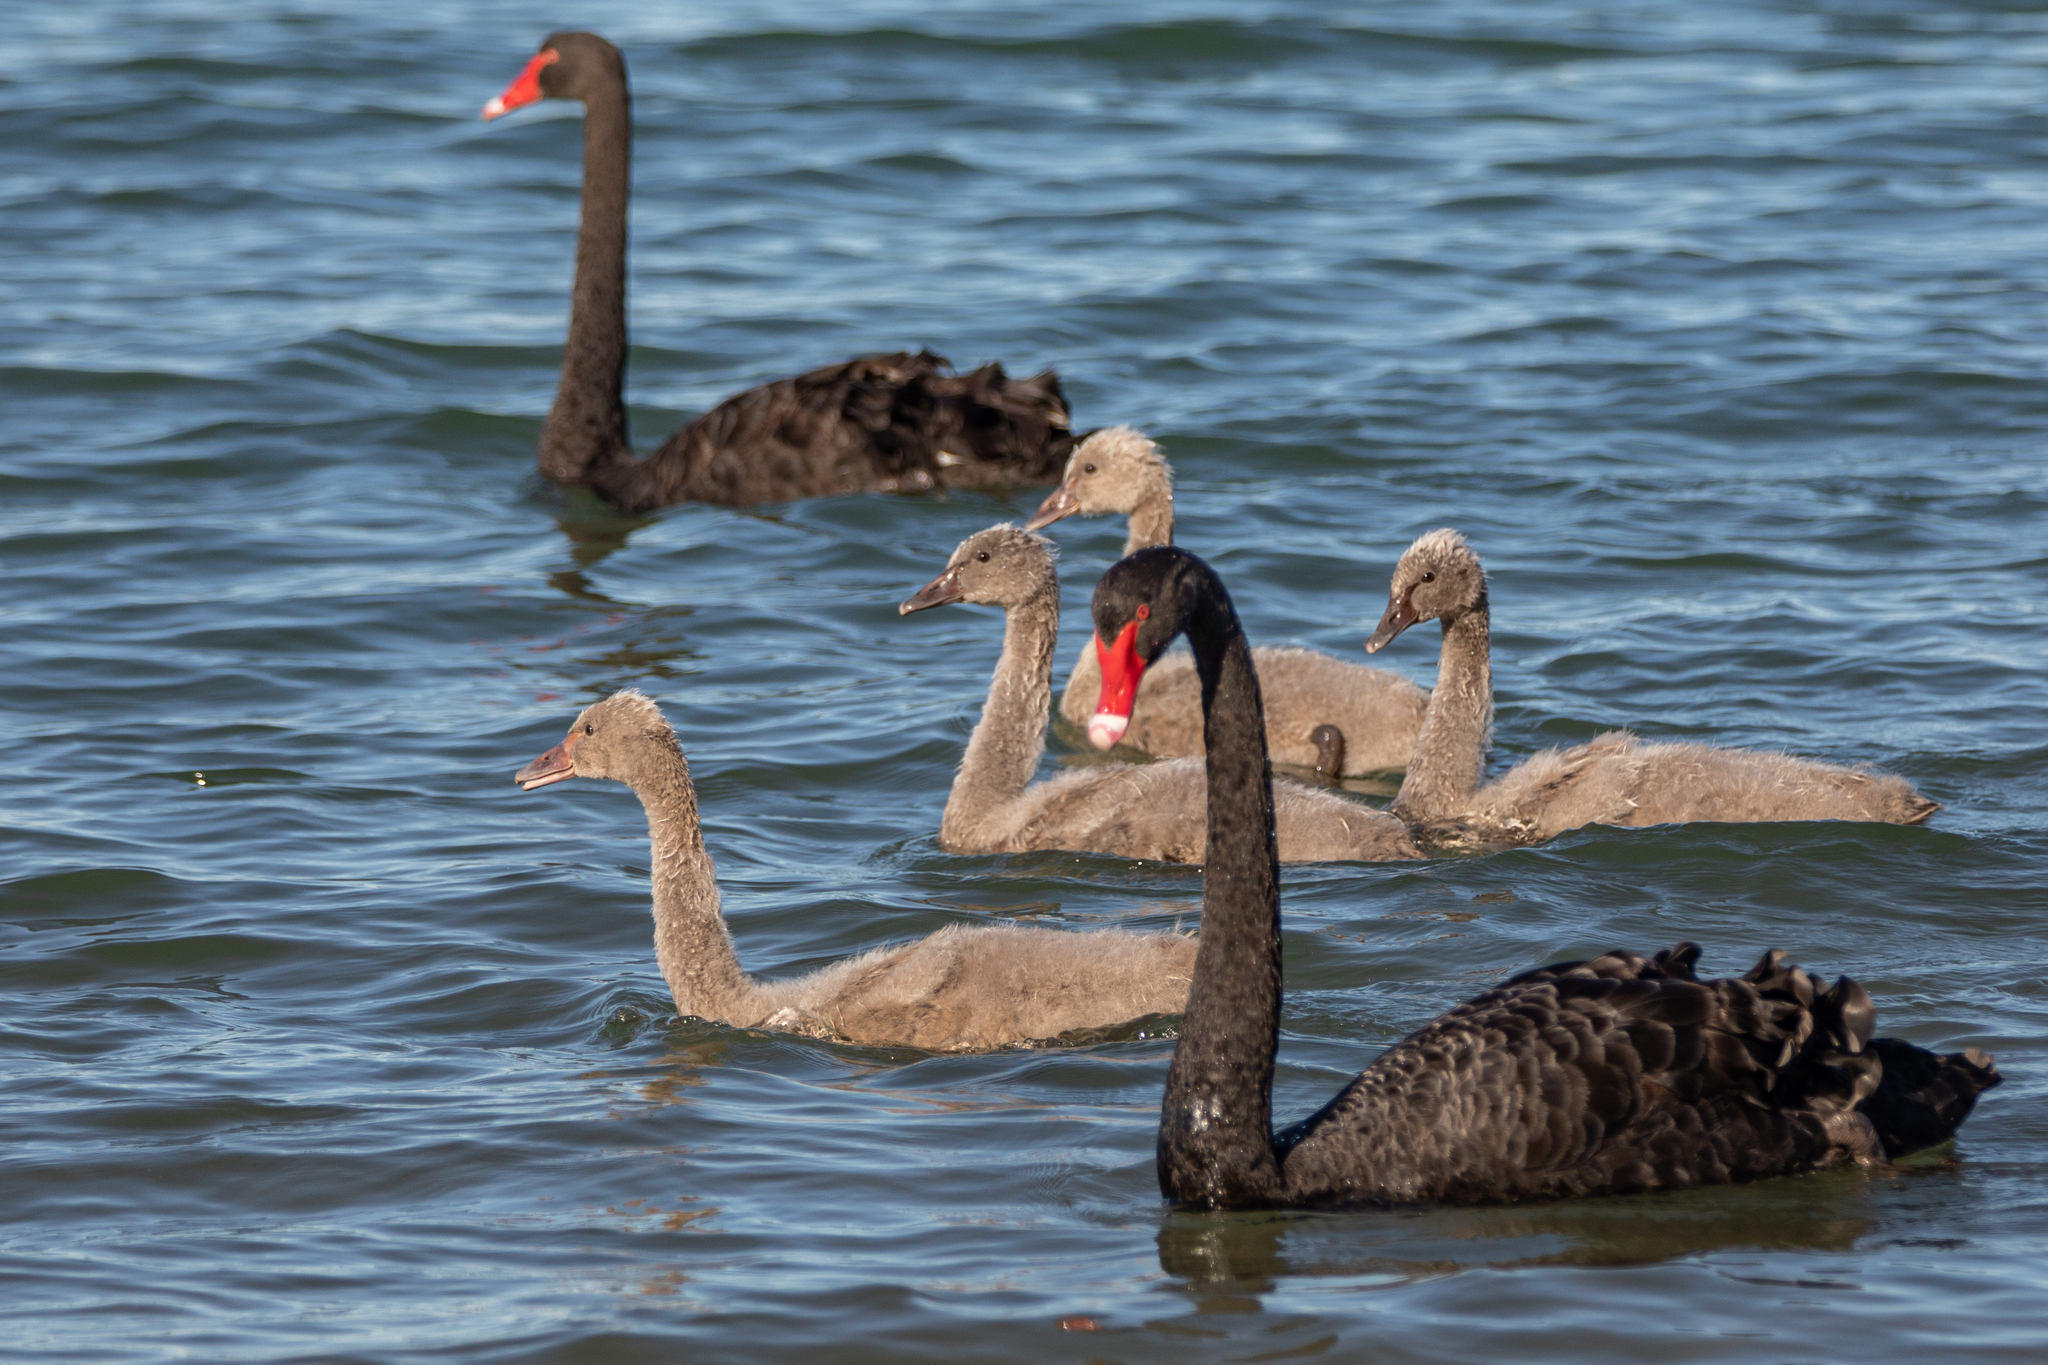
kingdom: Animalia
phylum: Chordata
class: Aves
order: Anseriformes
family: Anatidae
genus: Cygnus
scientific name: Cygnus atratus
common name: Black swan
